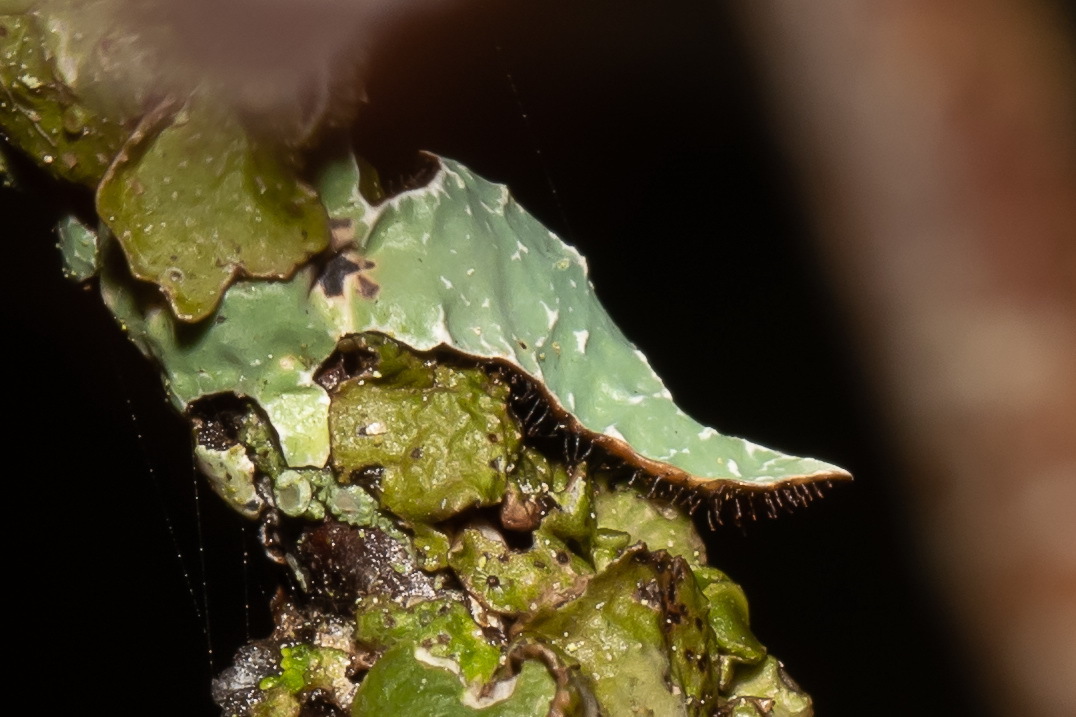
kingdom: Fungi
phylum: Ascomycota
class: Lecanoromycetes
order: Lecanorales
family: Parmeliaceae
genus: Parmelia
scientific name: Parmelia sulcata
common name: Netted shield lichen
